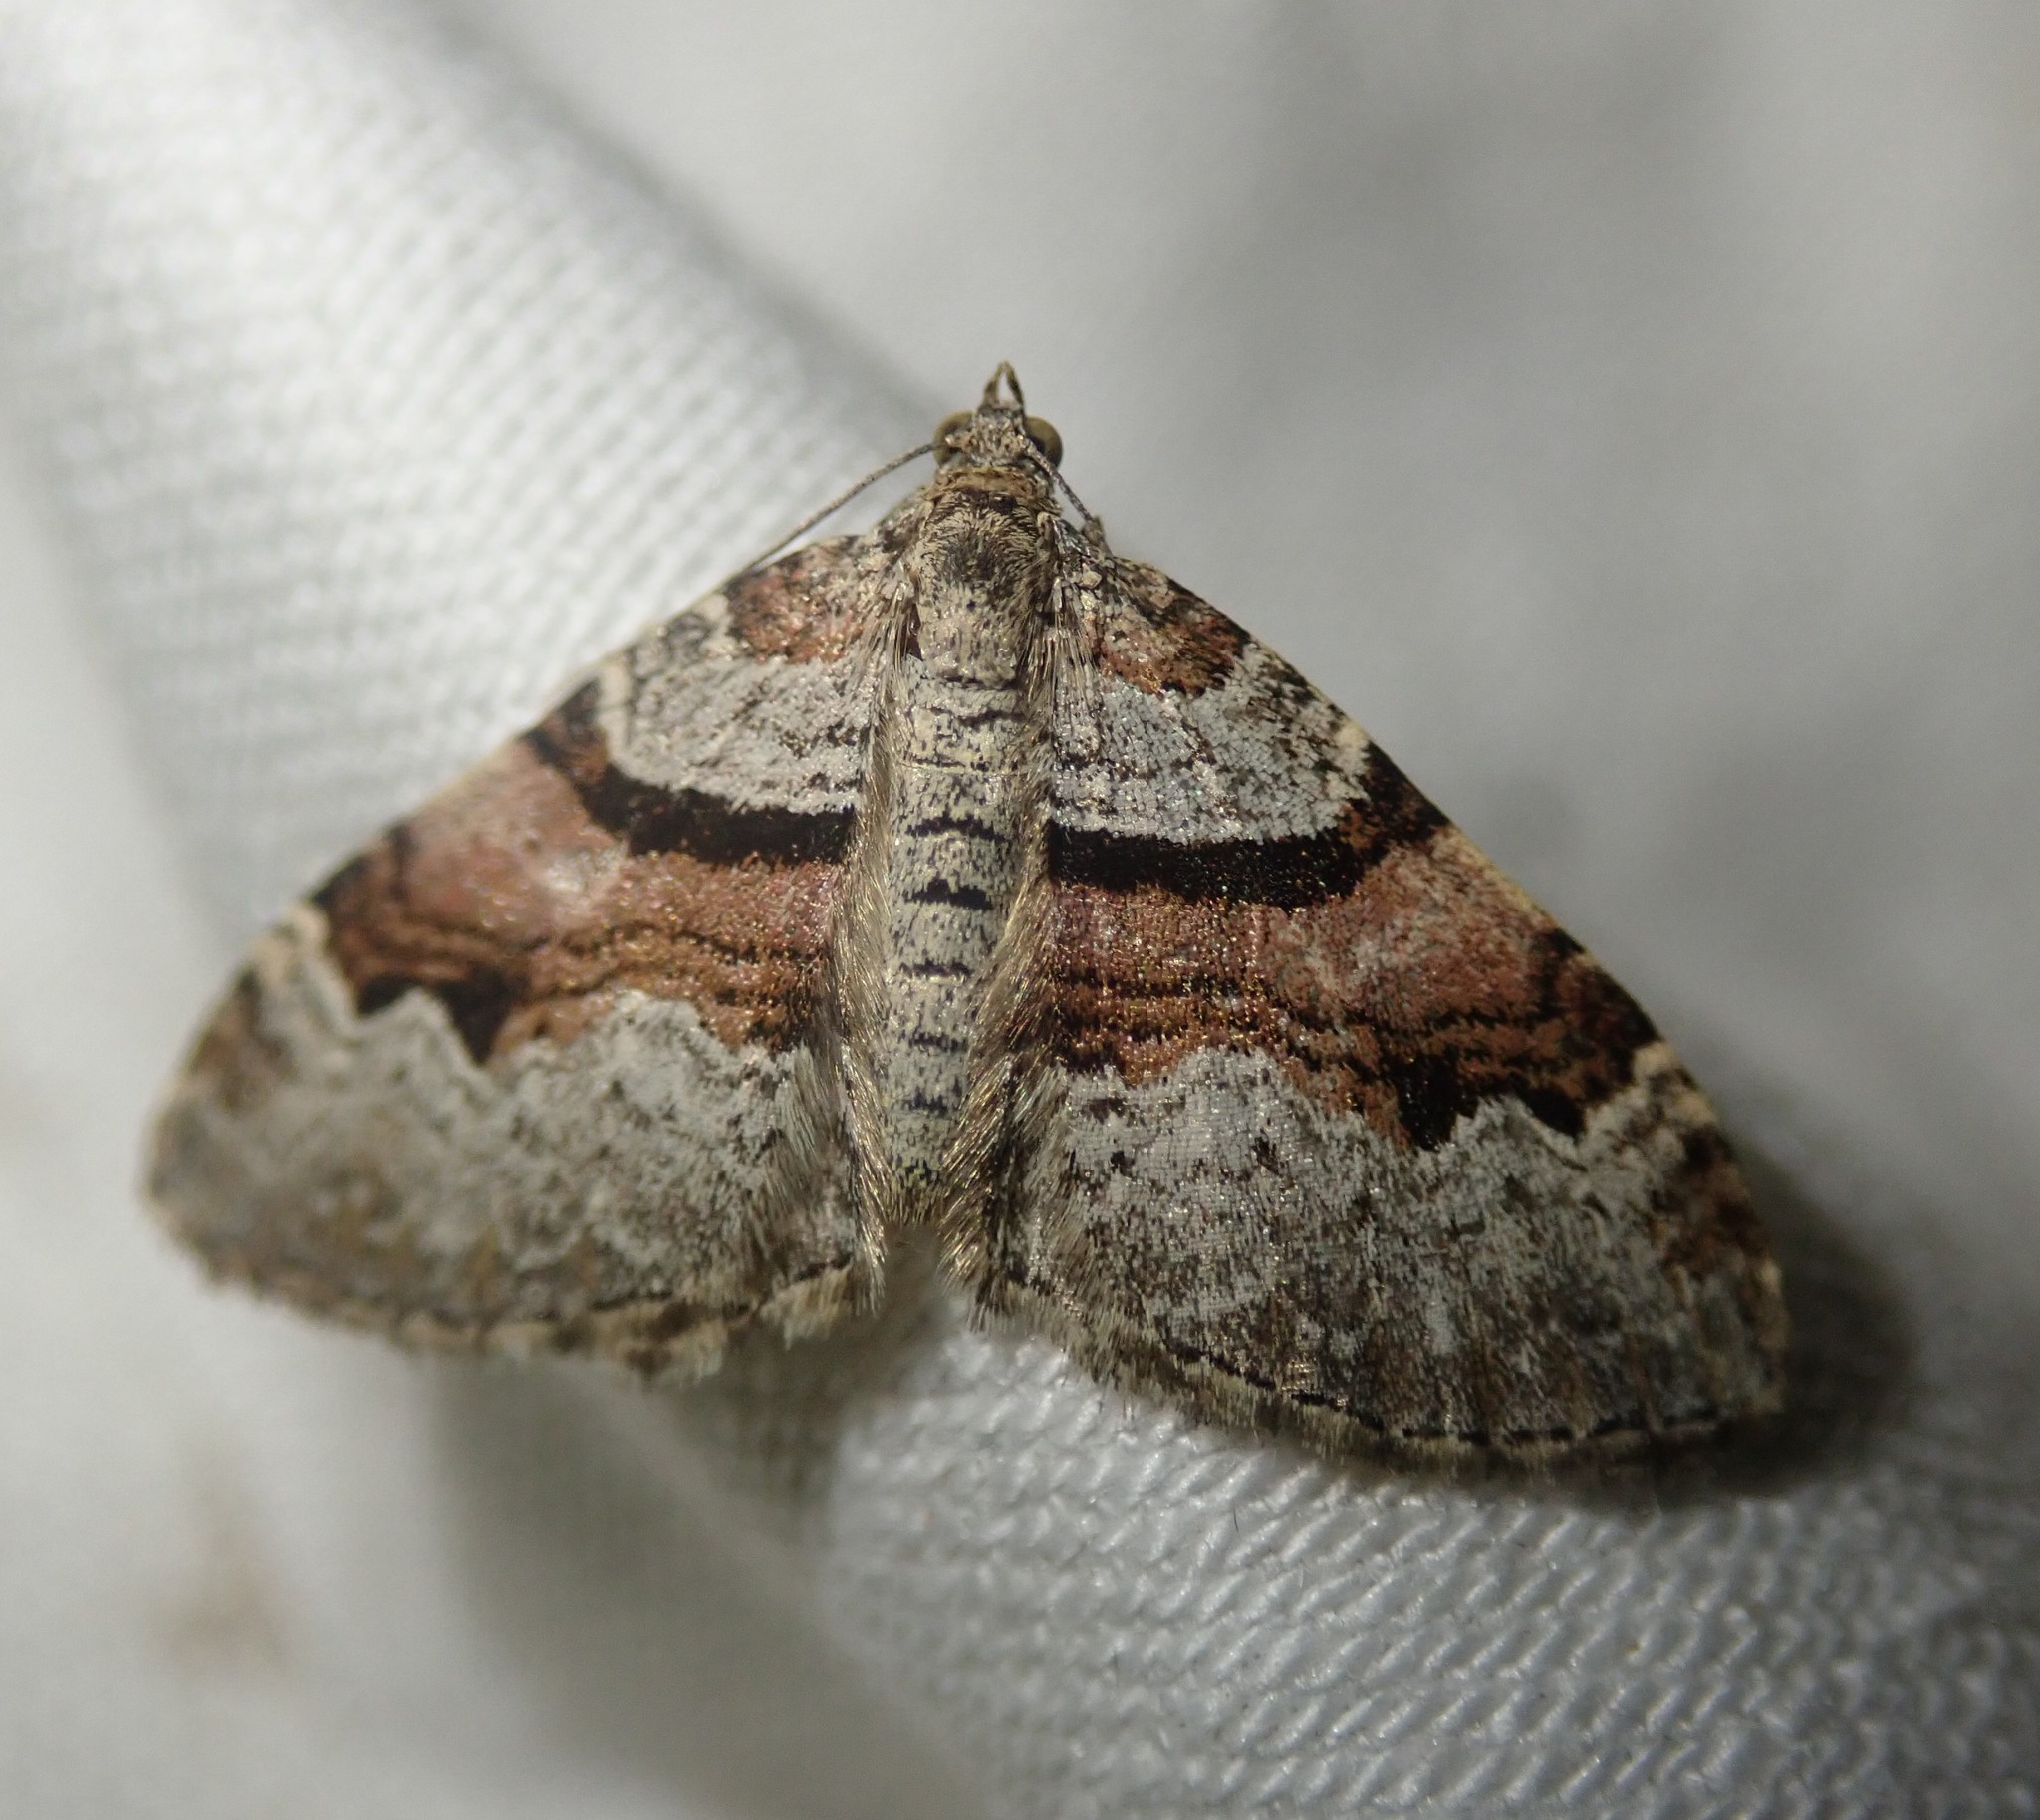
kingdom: Animalia
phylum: Arthropoda
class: Insecta
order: Lepidoptera
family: Geometridae
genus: Xanthorhoe
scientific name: Xanthorhoe designata
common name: Flame carpet
